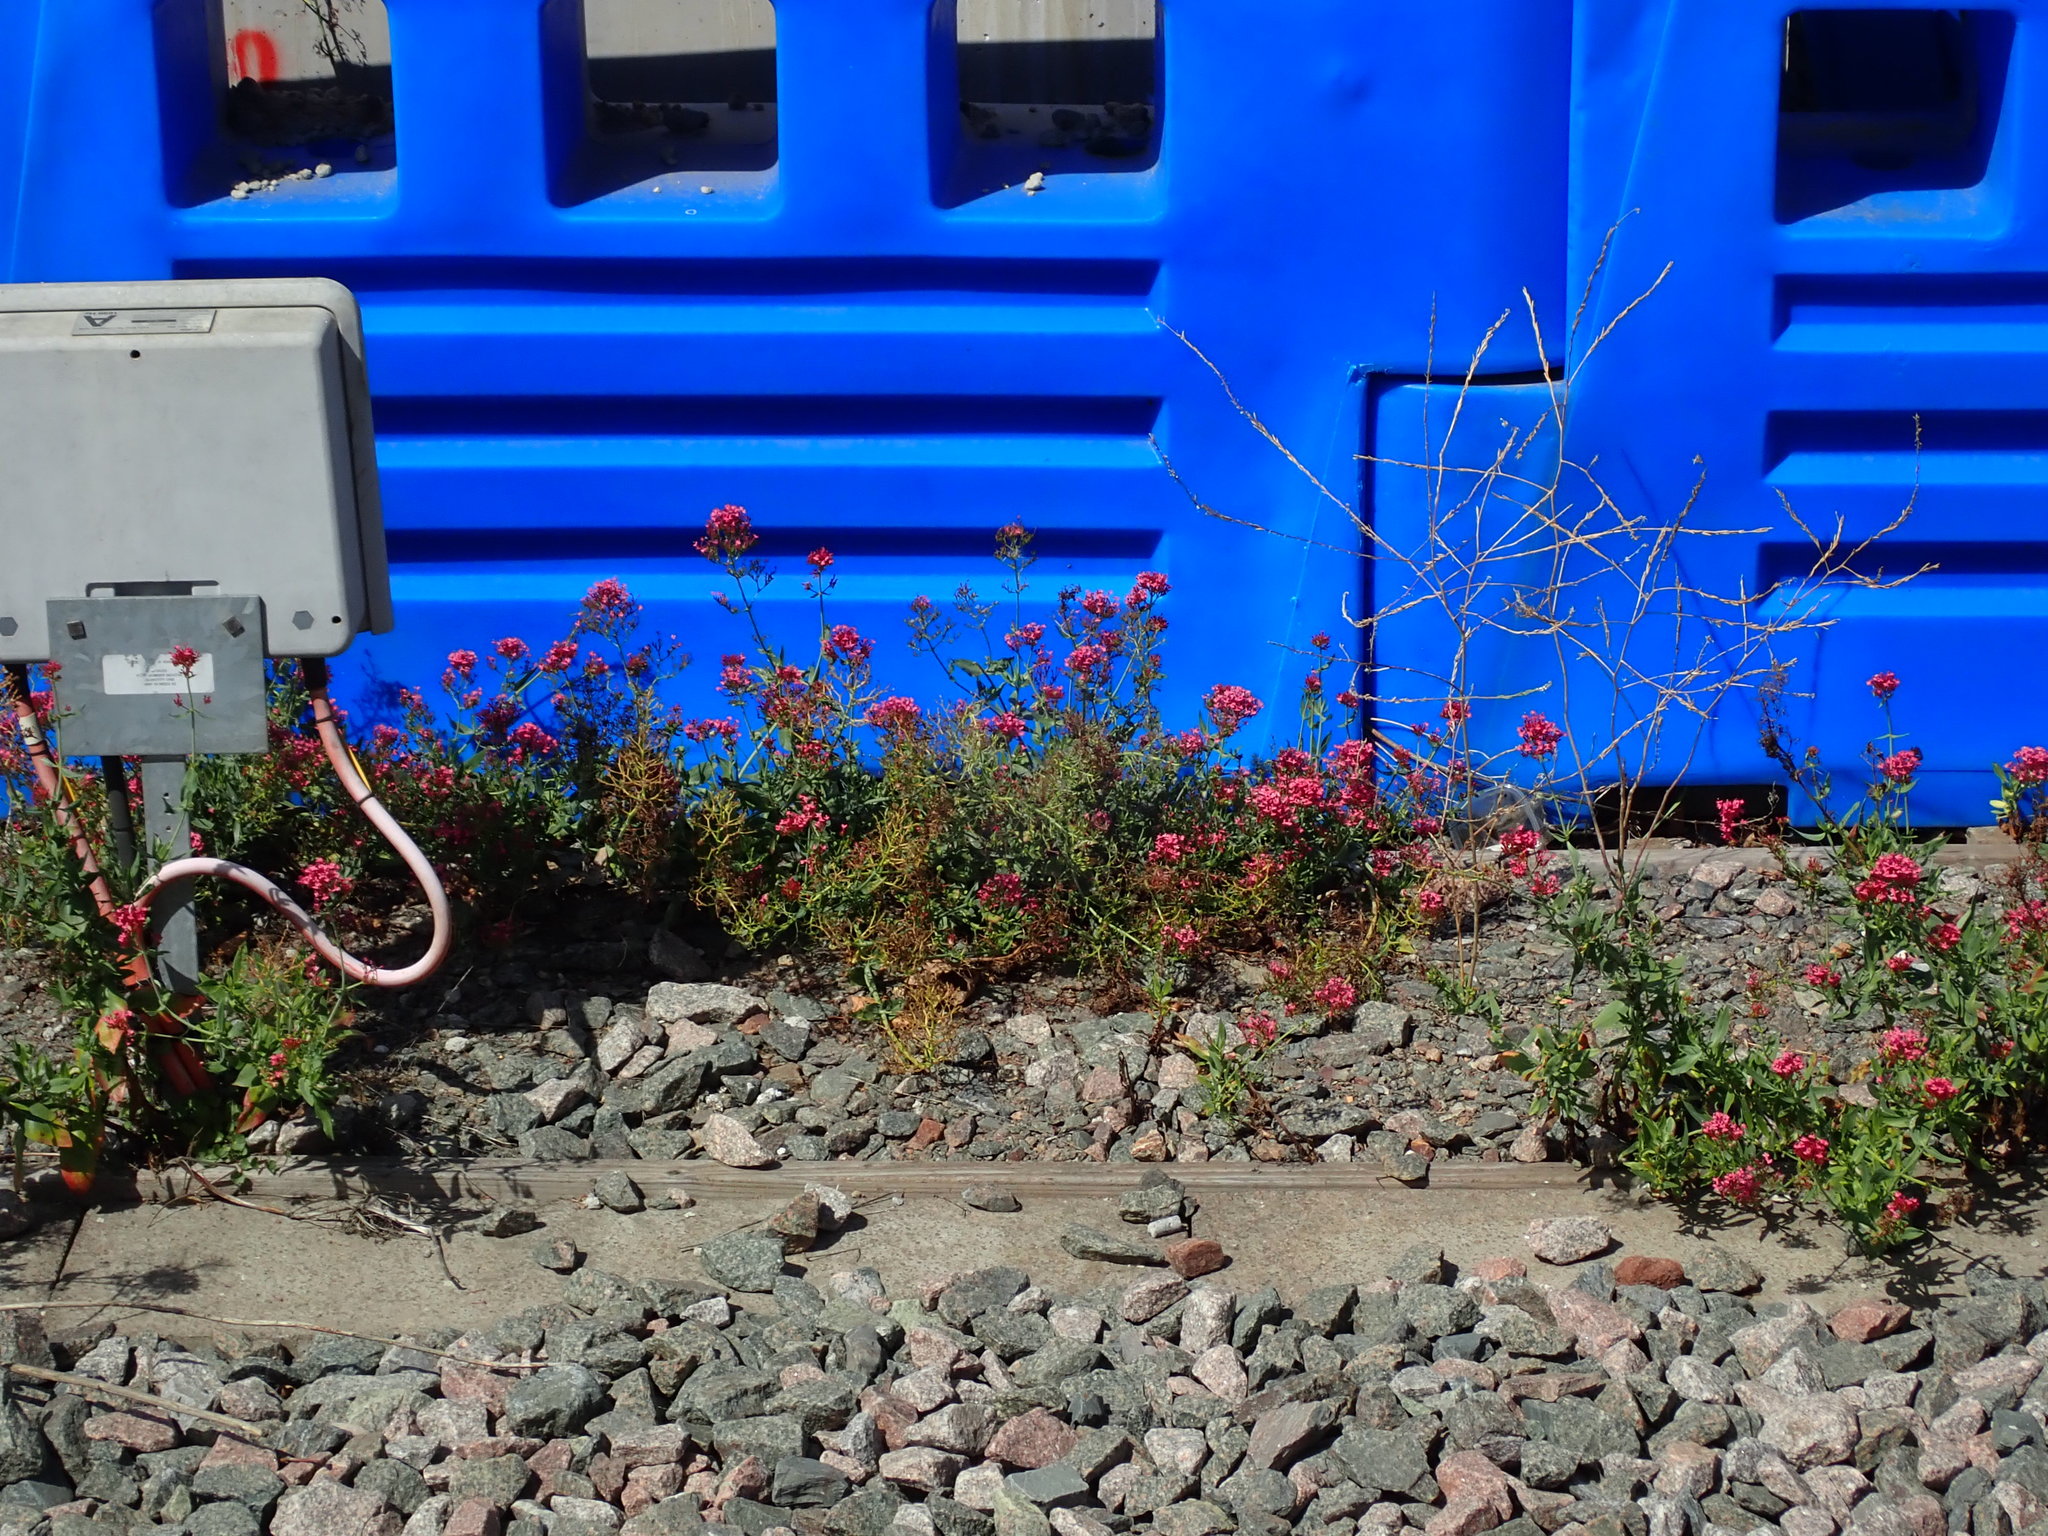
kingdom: Plantae
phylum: Tracheophyta
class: Magnoliopsida
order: Dipsacales
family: Caprifoliaceae
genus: Centranthus
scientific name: Centranthus ruber
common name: Red valerian
